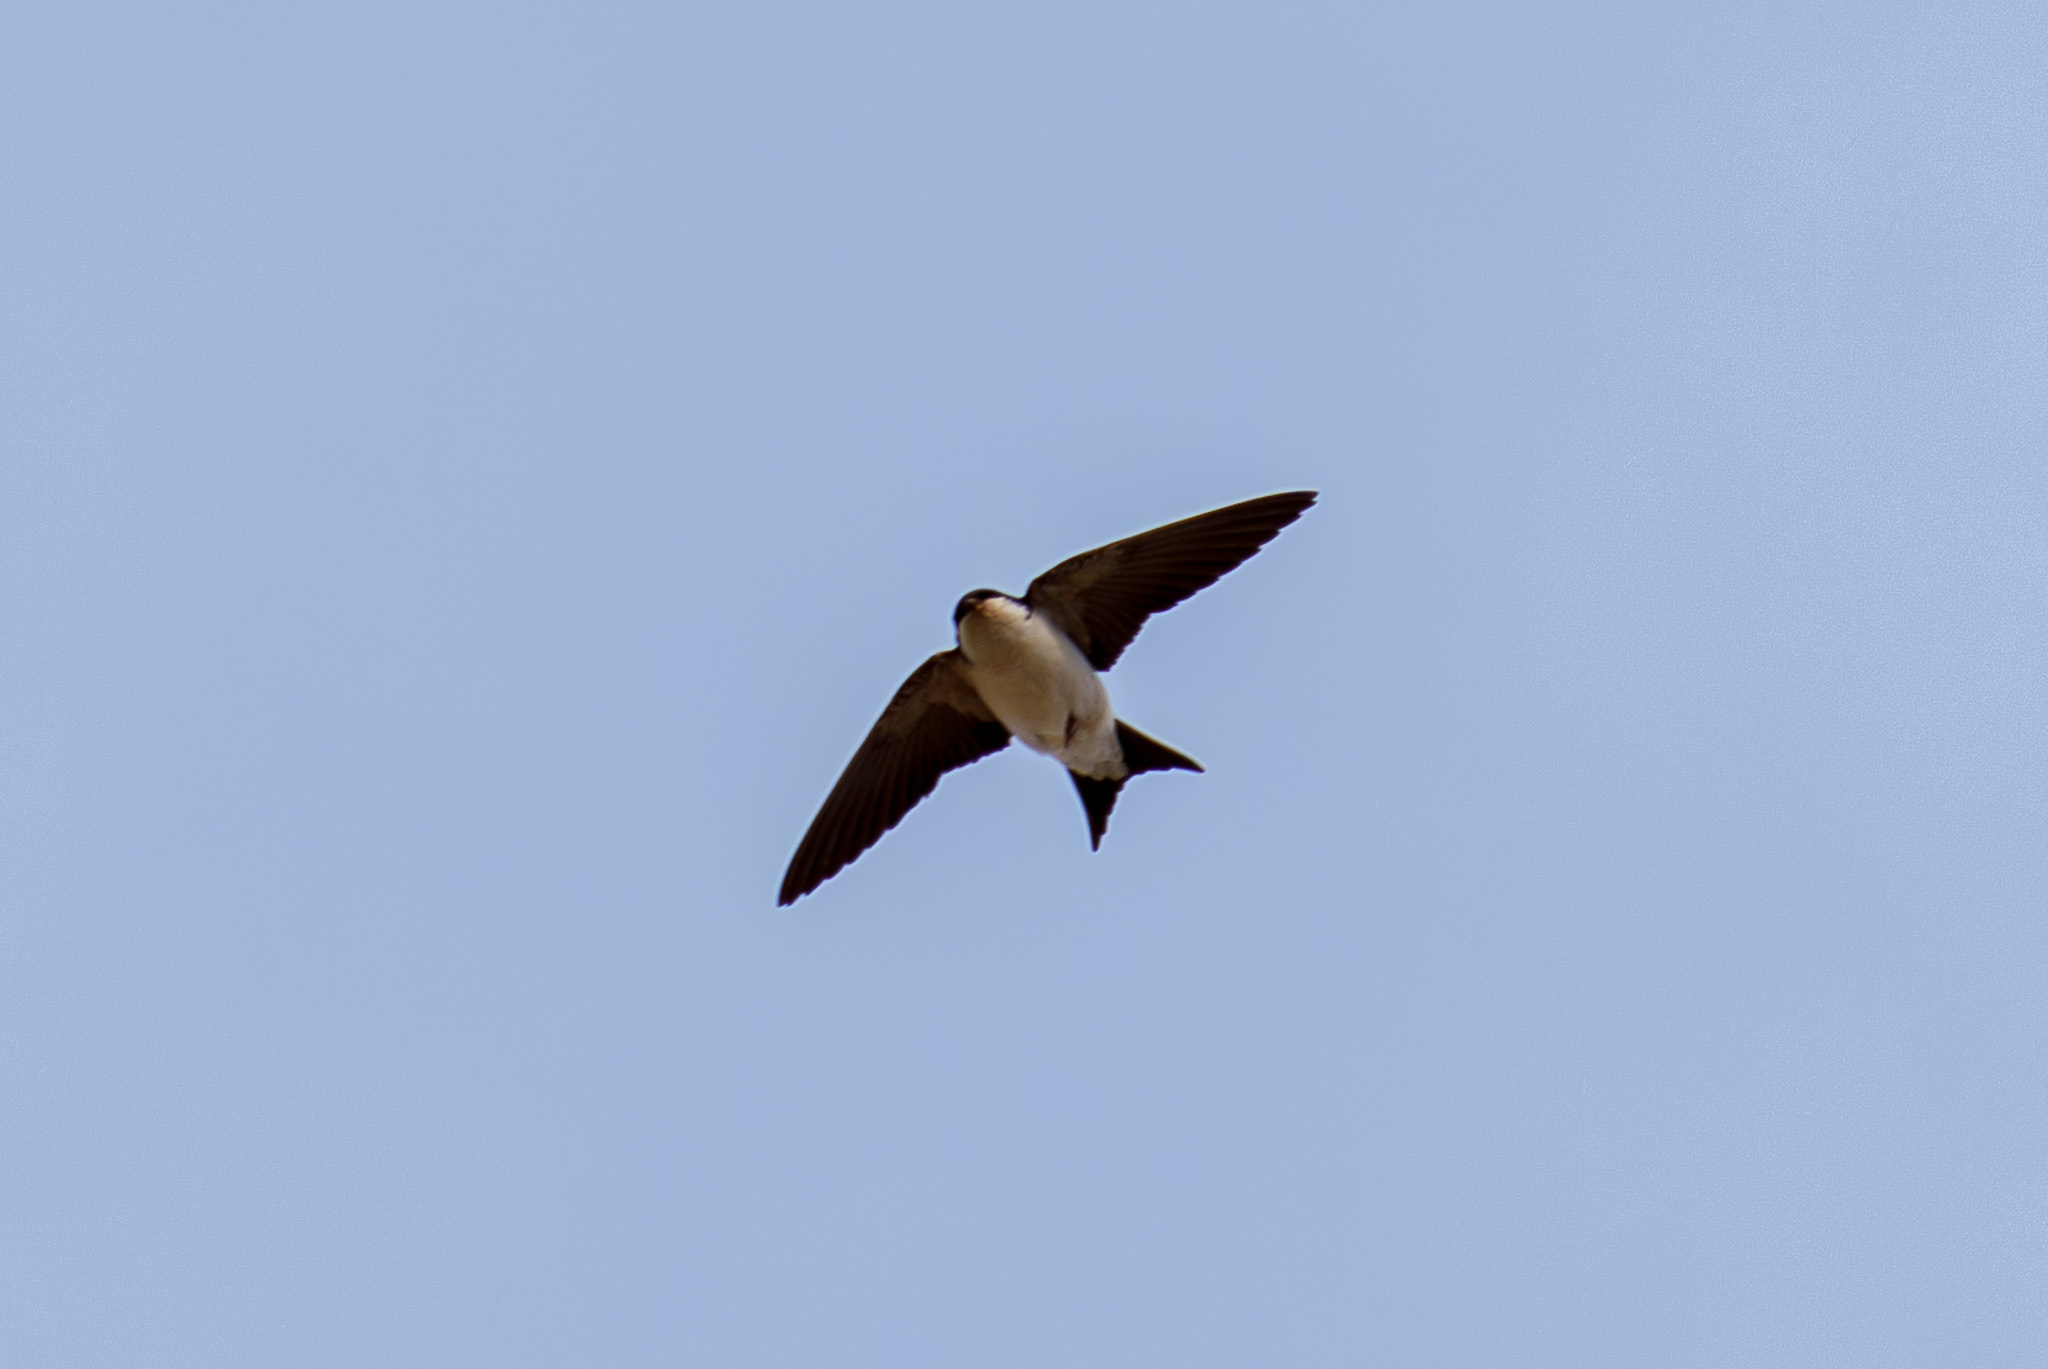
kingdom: Animalia
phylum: Chordata
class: Aves
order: Passeriformes
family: Hirundinidae
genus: Delichon
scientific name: Delichon urbicum
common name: Common house martin
